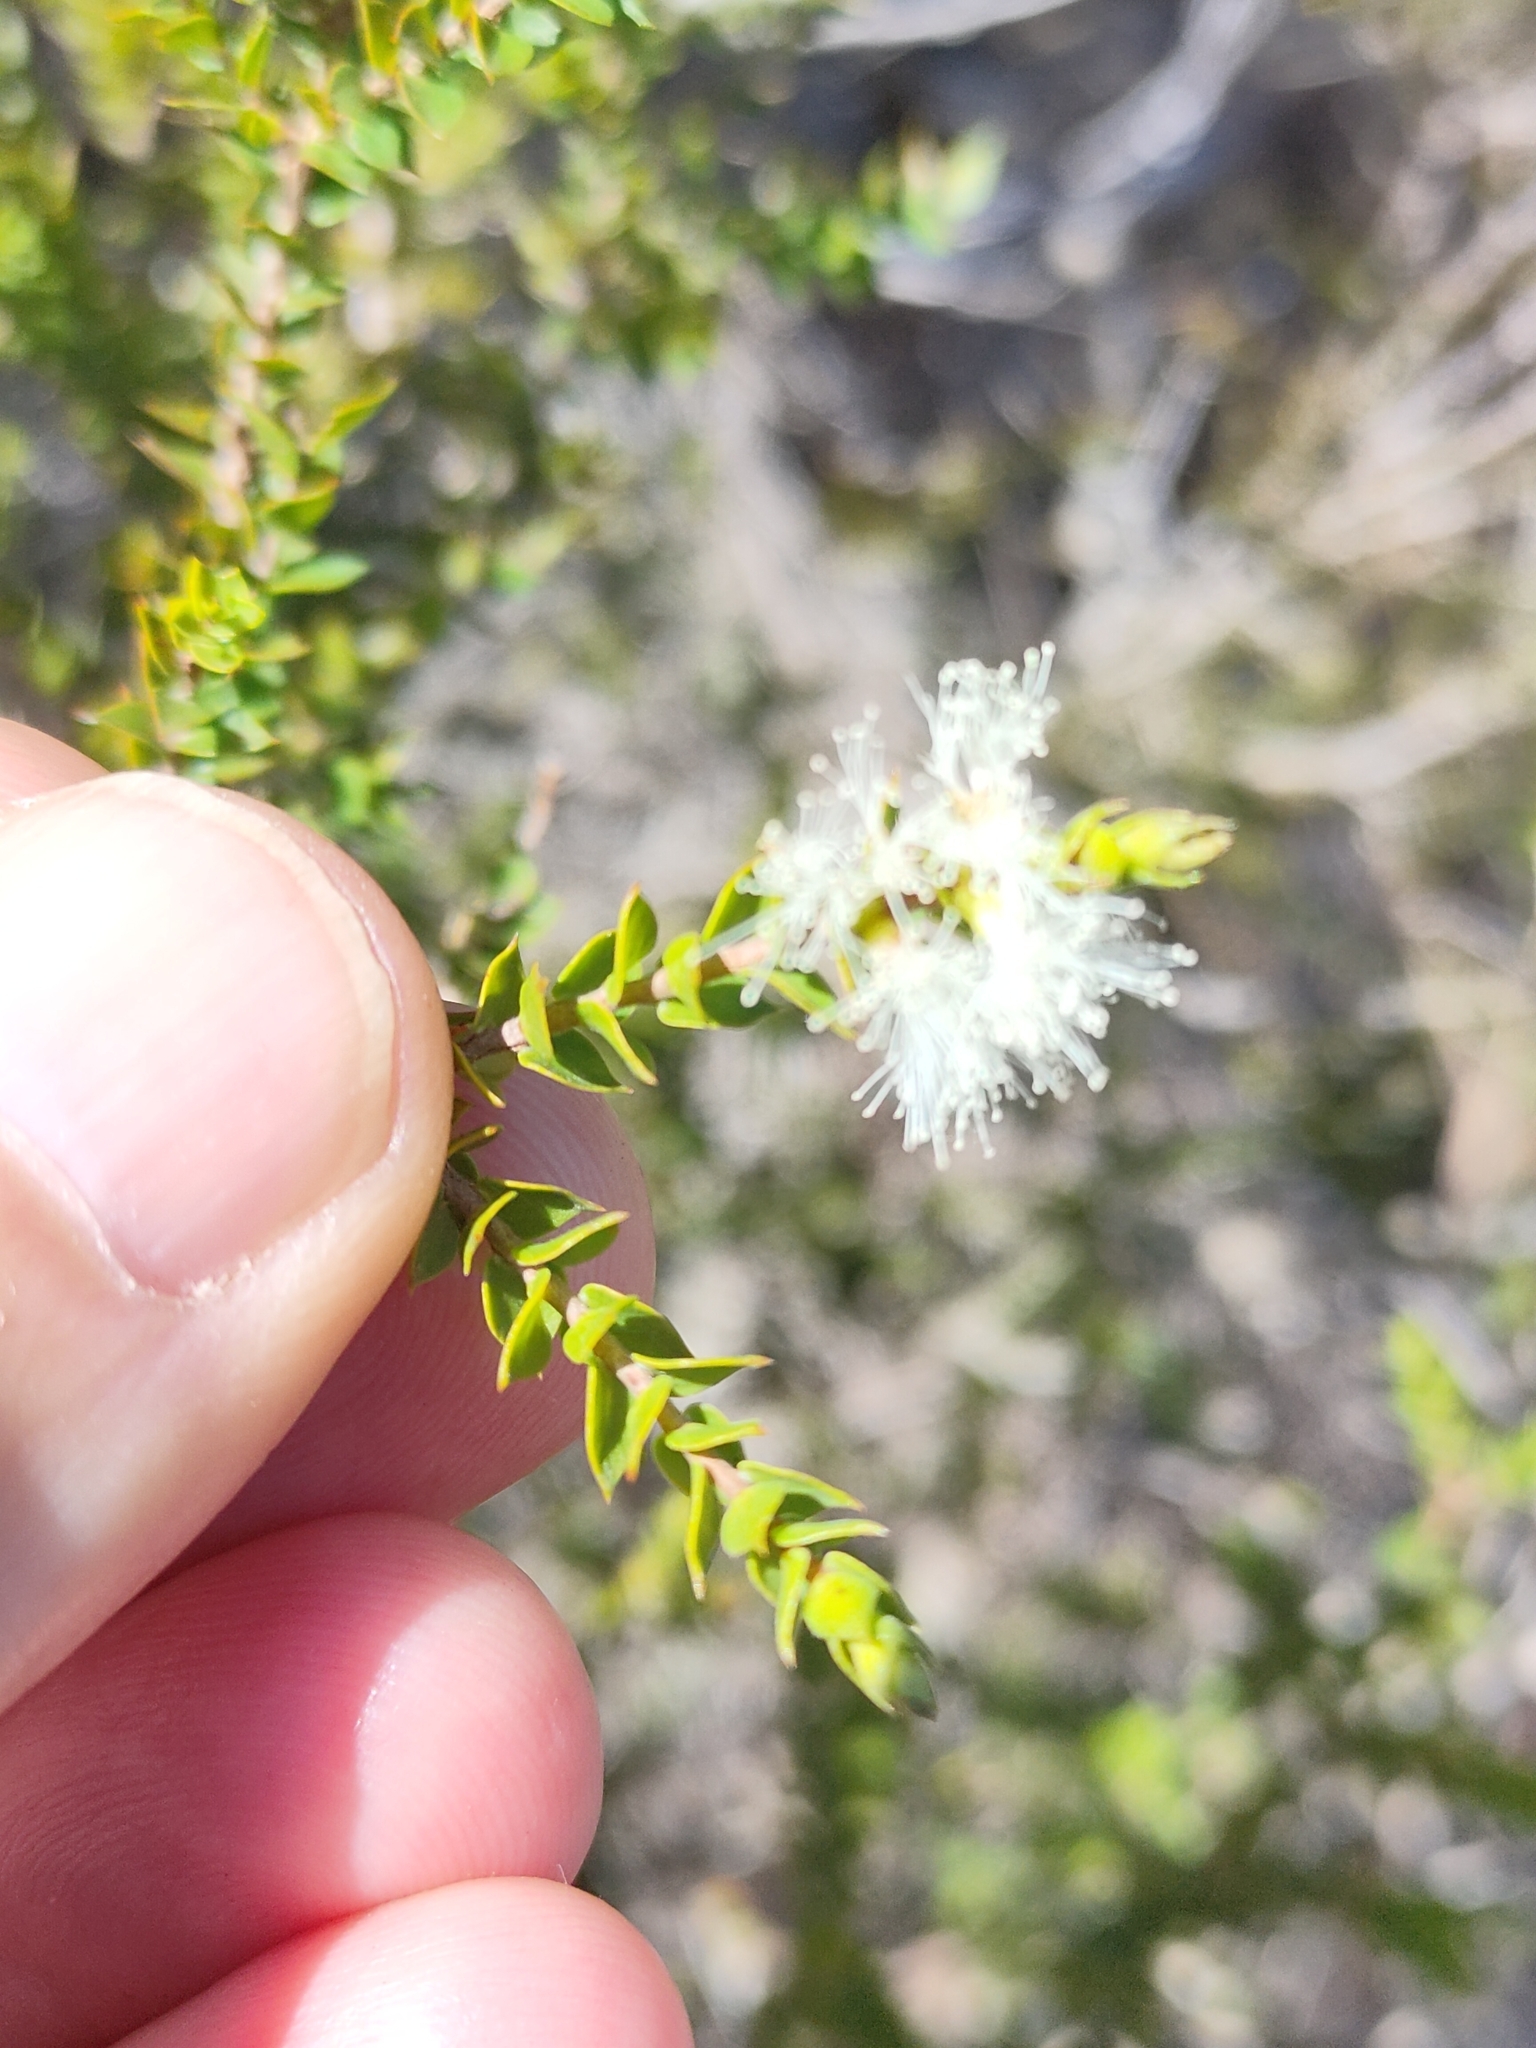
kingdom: Plantae
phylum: Tracheophyta
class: Magnoliopsida
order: Myrtales
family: Myrtaceae
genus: Melaleuca
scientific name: Melaleuca styphelioides
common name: Prickly paperbark
